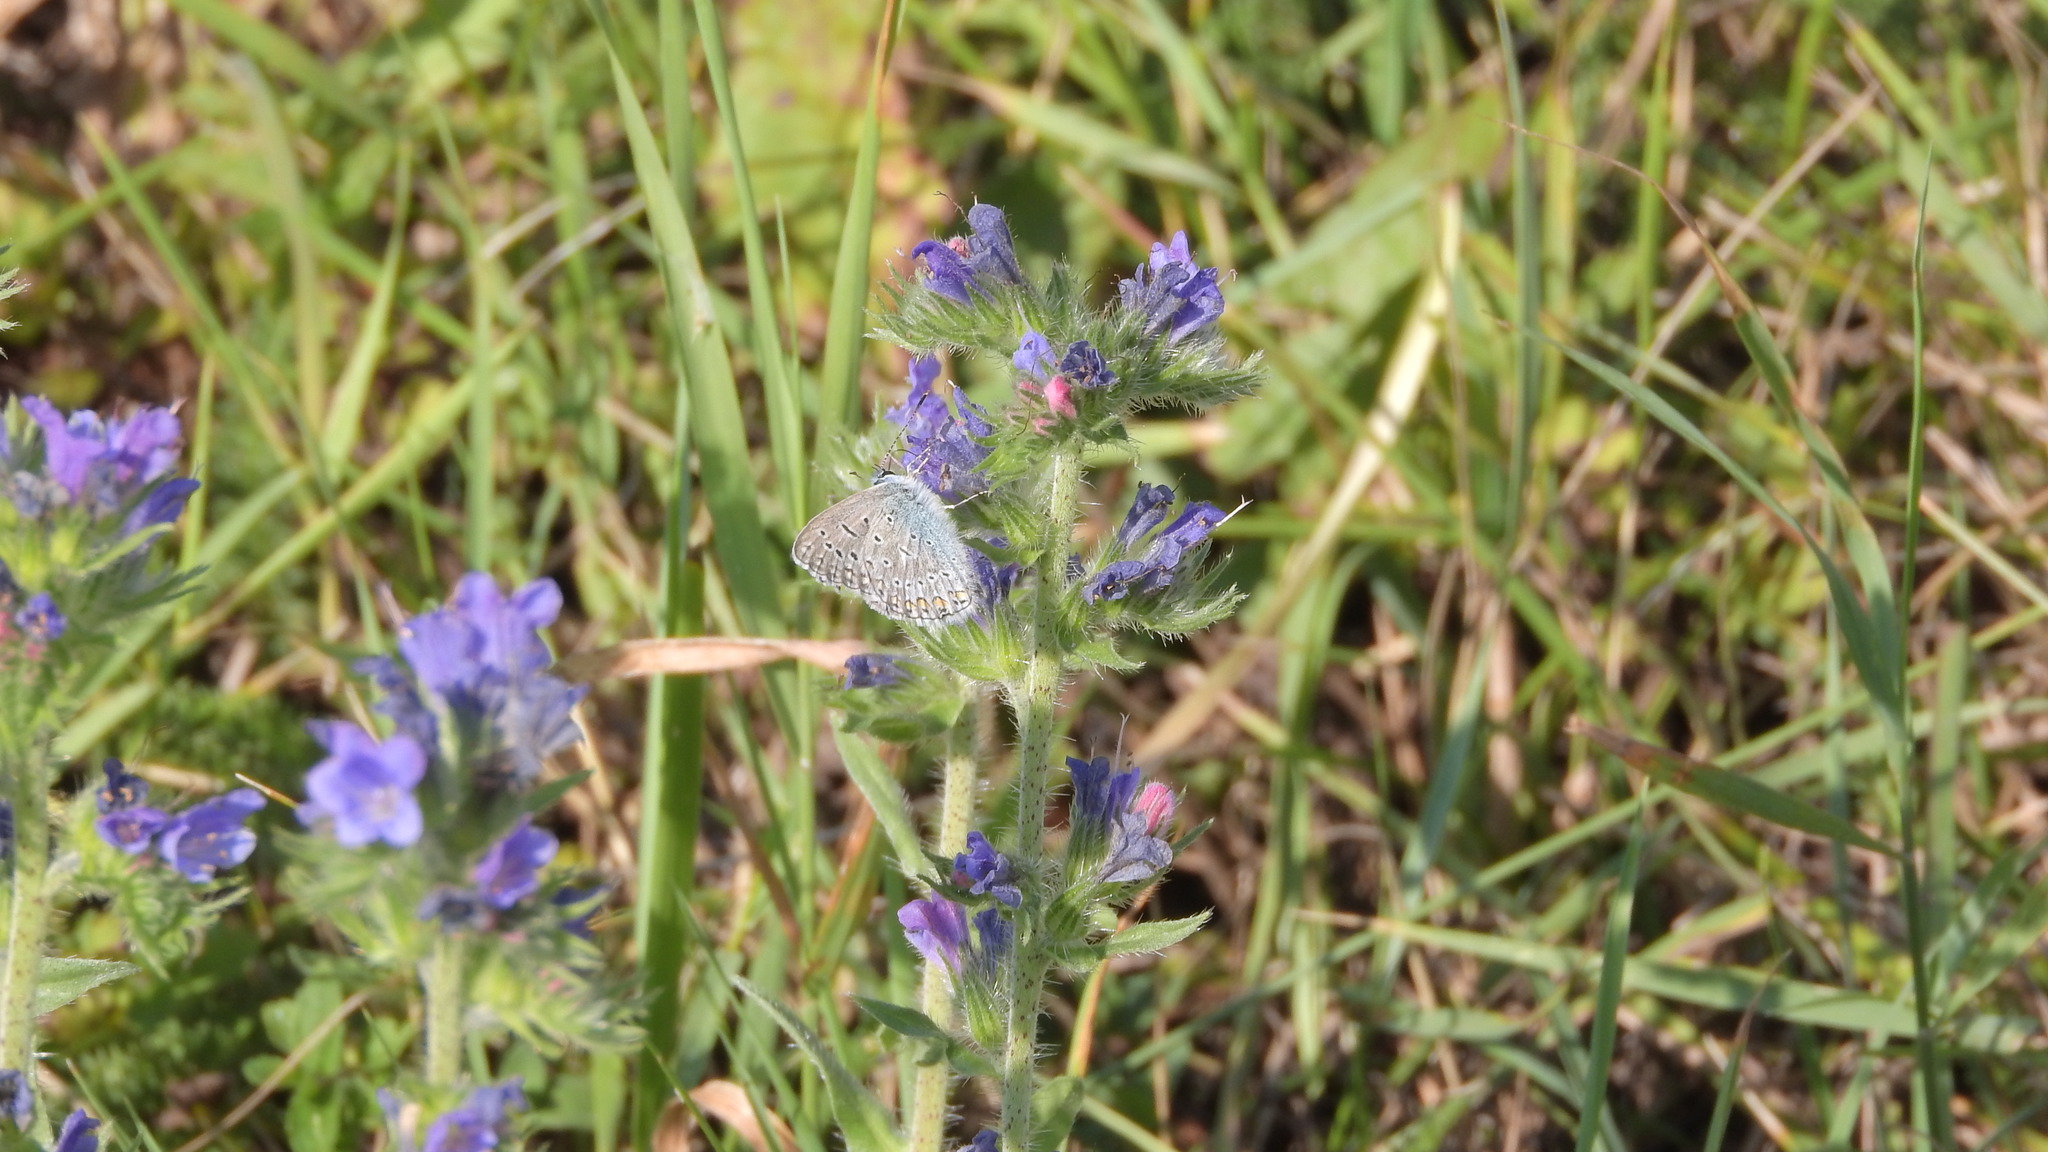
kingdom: Animalia
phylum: Arthropoda
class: Insecta
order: Lepidoptera
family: Lycaenidae
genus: Polyommatus
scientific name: Polyommatus icarus
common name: Common blue
